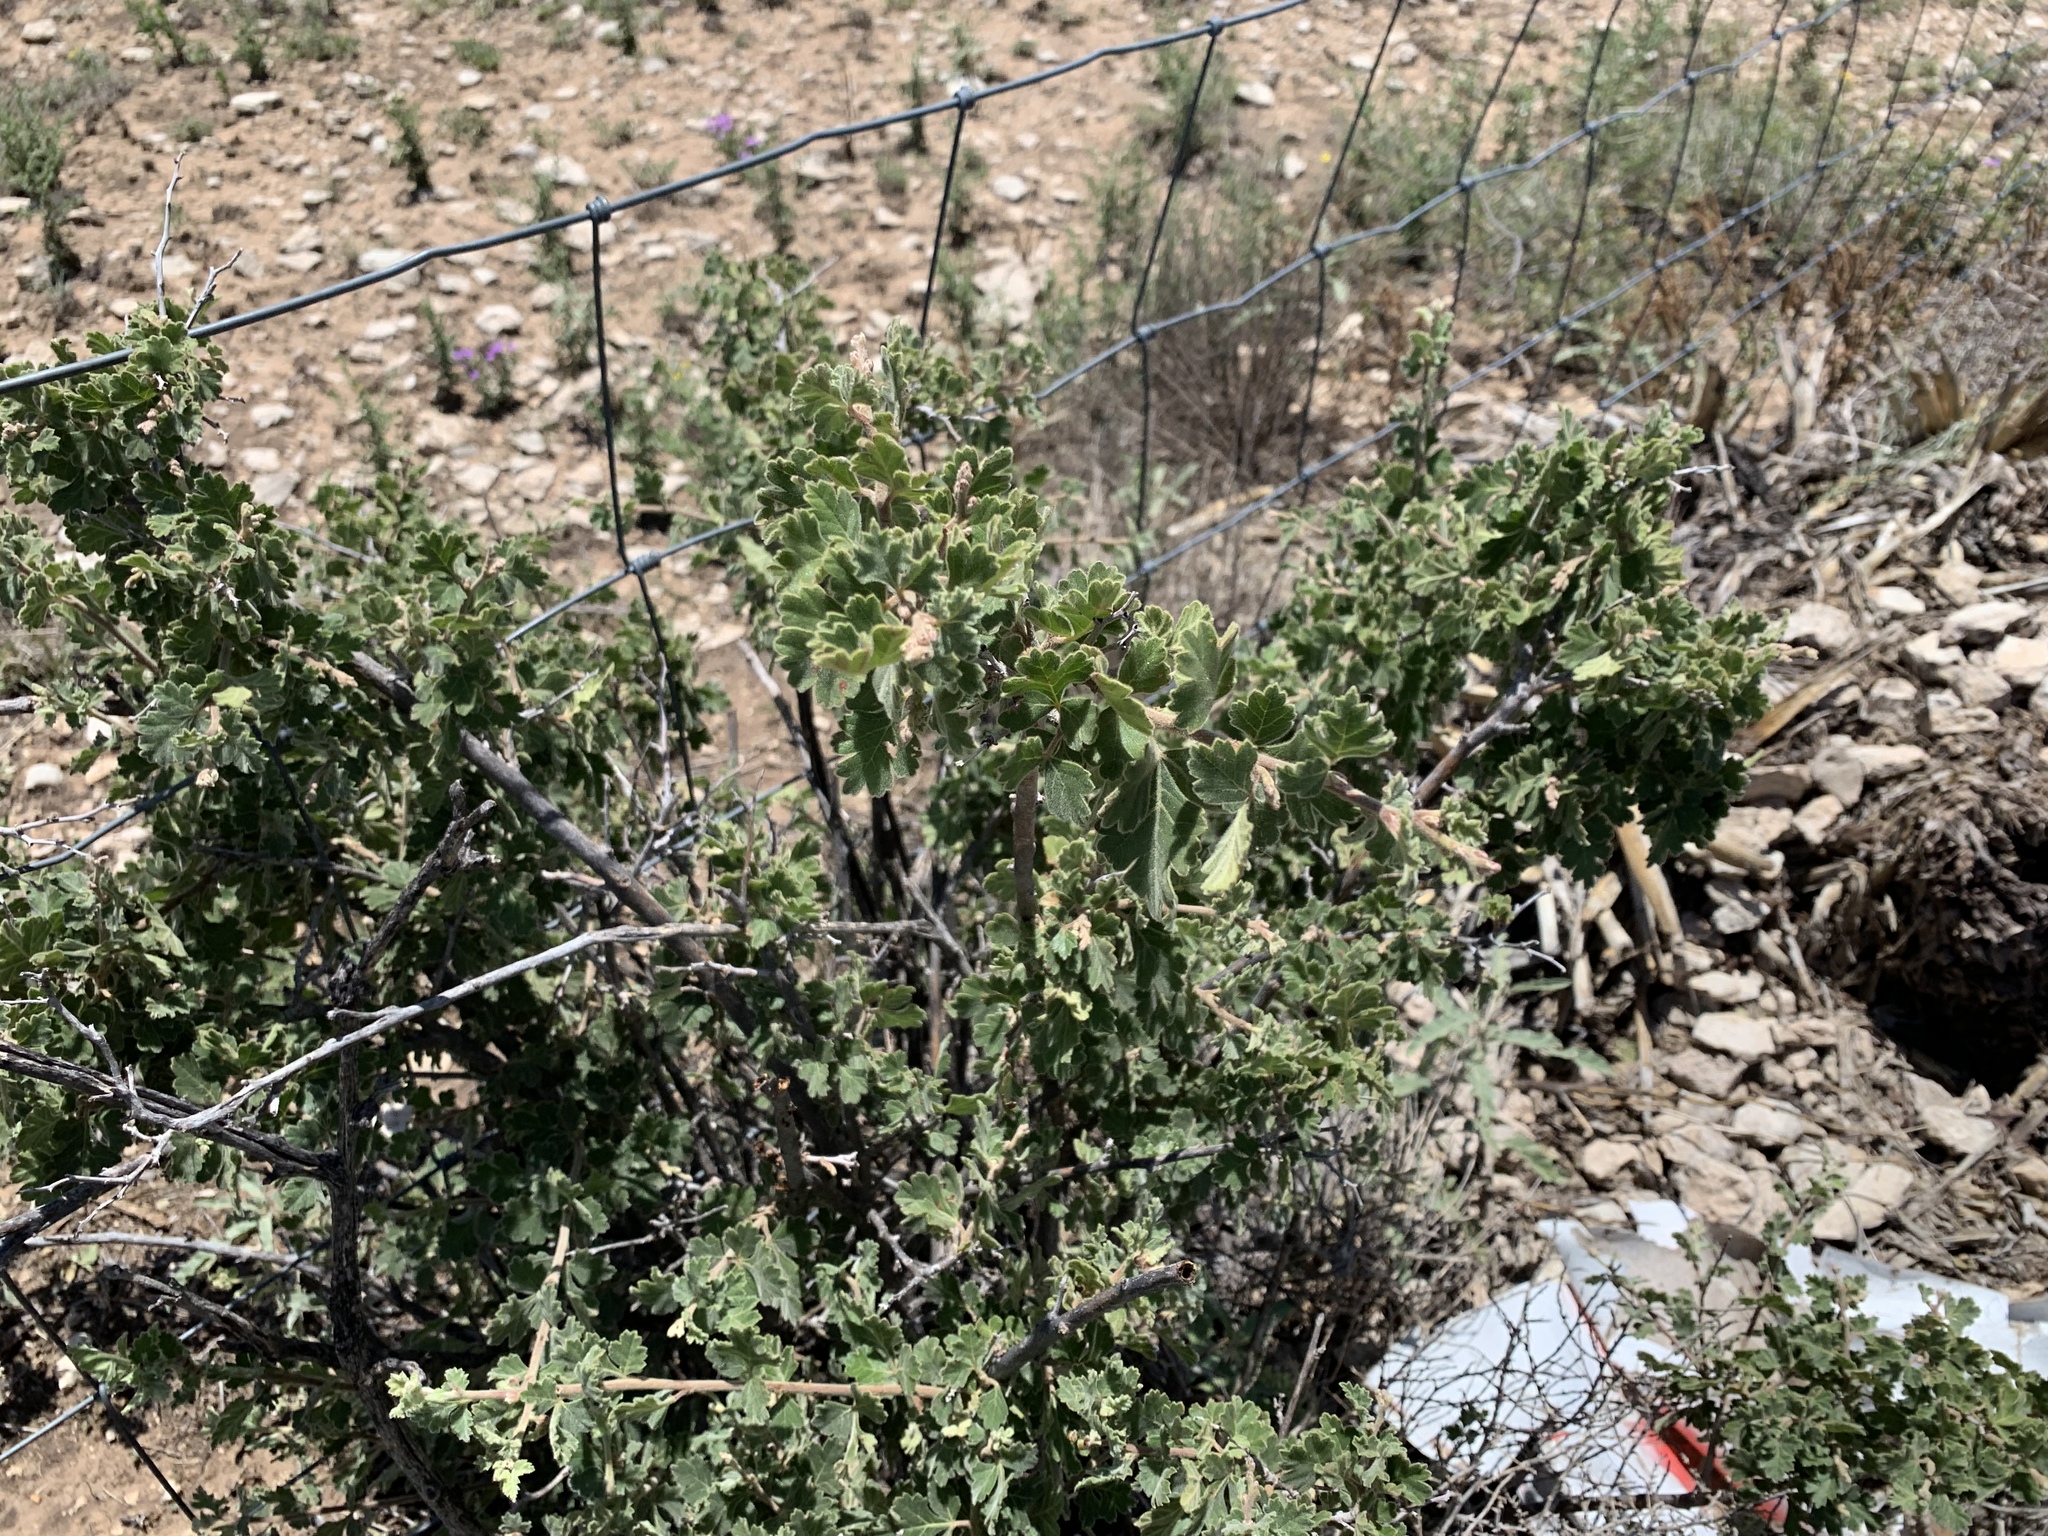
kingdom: Plantae
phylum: Tracheophyta
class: Magnoliopsida
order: Sapindales
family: Anacardiaceae
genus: Rhus
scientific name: Rhus aromatica
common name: Aromatic sumac
